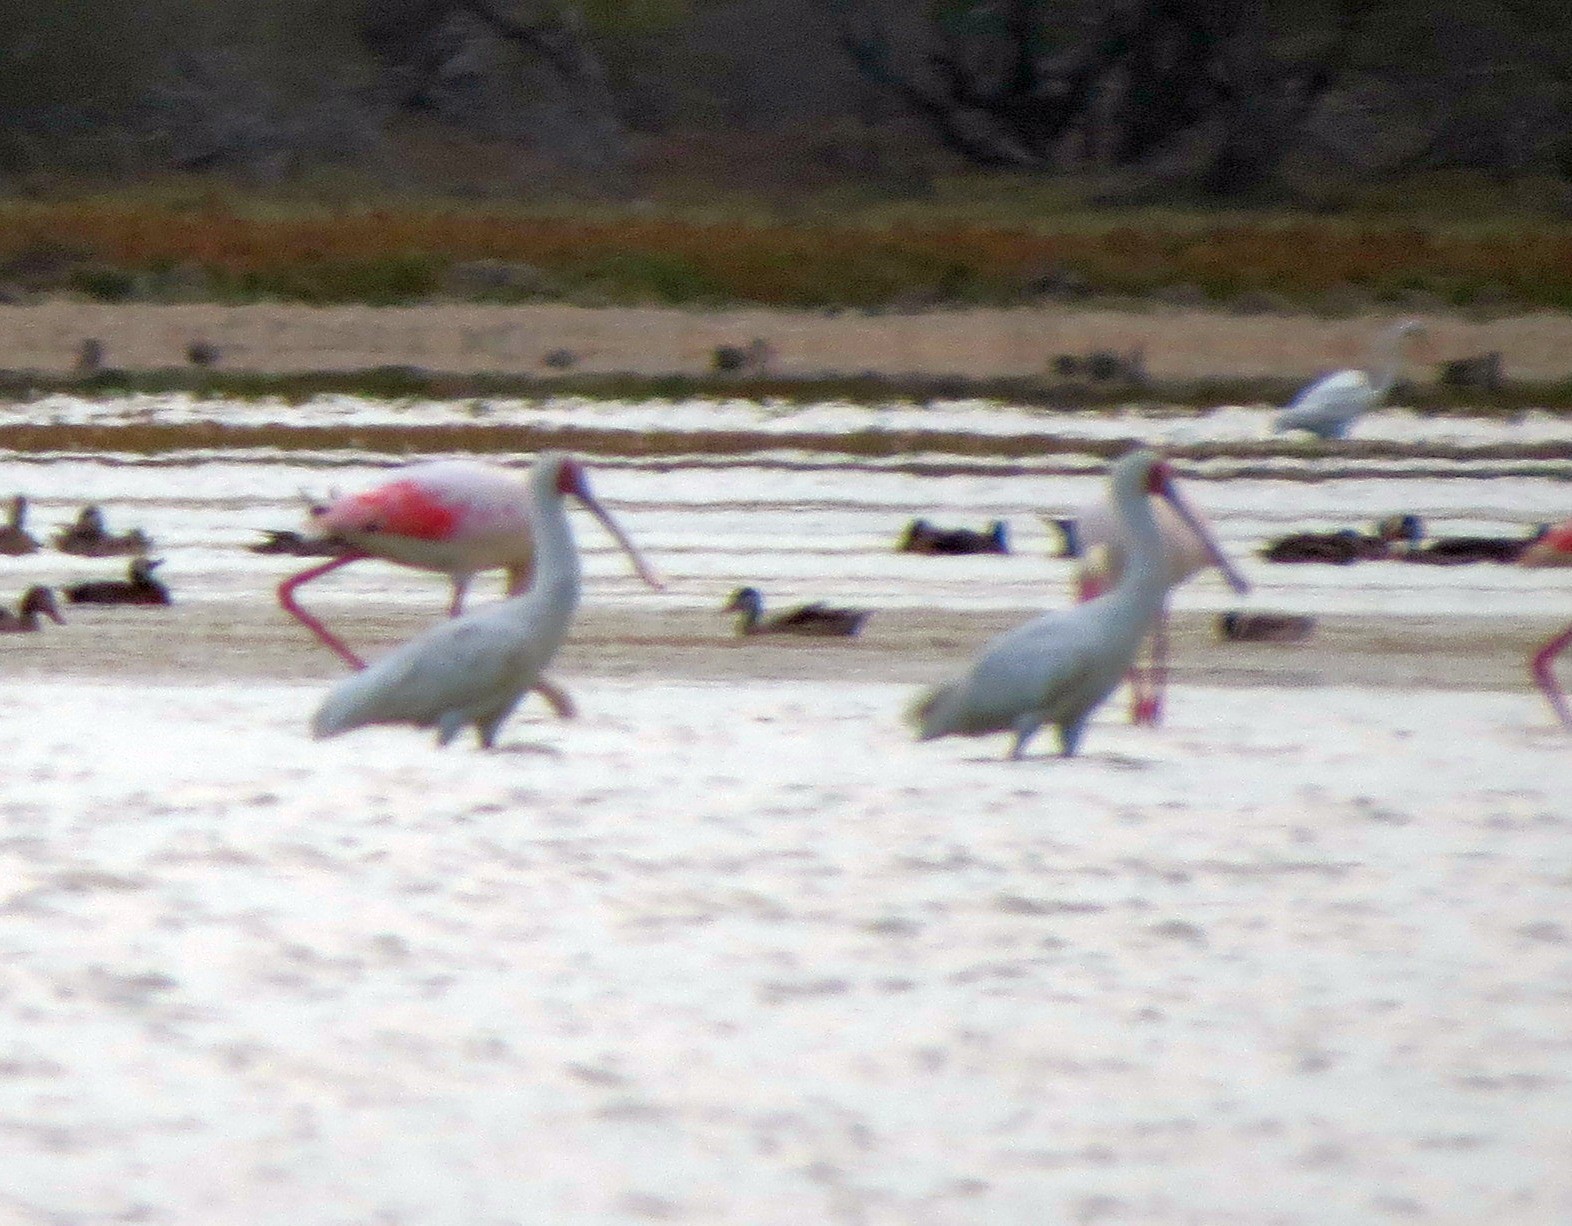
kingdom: Animalia
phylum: Chordata
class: Aves
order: Pelecaniformes
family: Threskiornithidae
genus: Platalea
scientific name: Platalea alba
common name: African spoonbill
